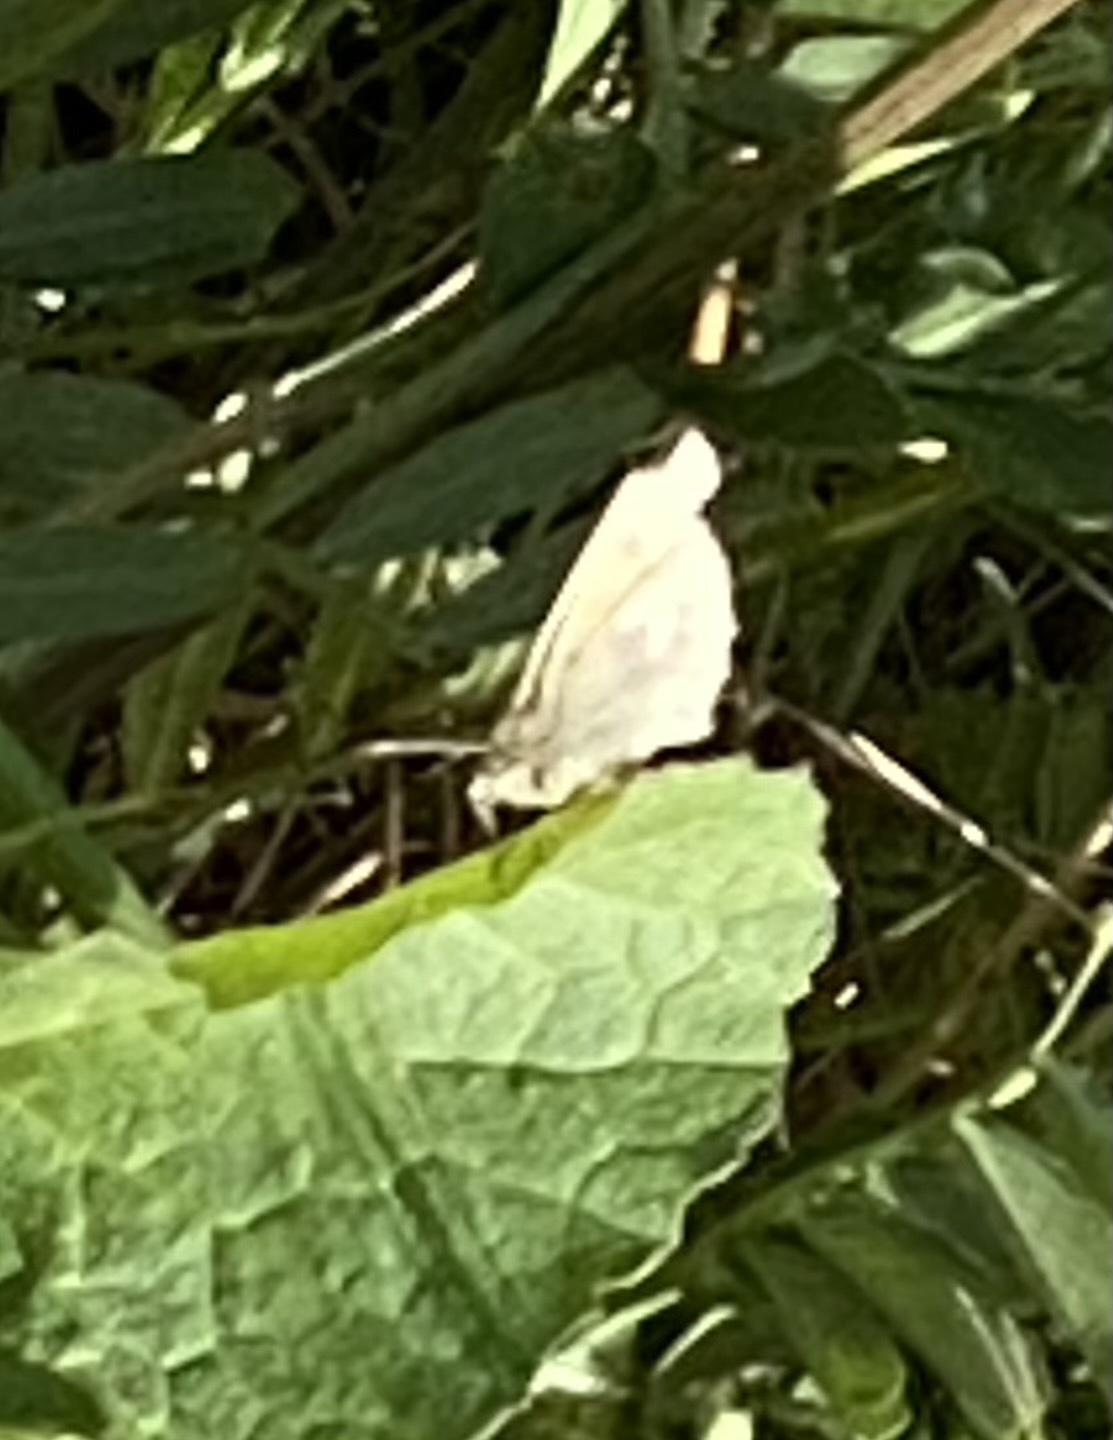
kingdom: Animalia
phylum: Arthropoda
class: Insecta
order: Lepidoptera
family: Nymphalidae
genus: Coenonympha
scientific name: Coenonympha california
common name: Common ringlet
